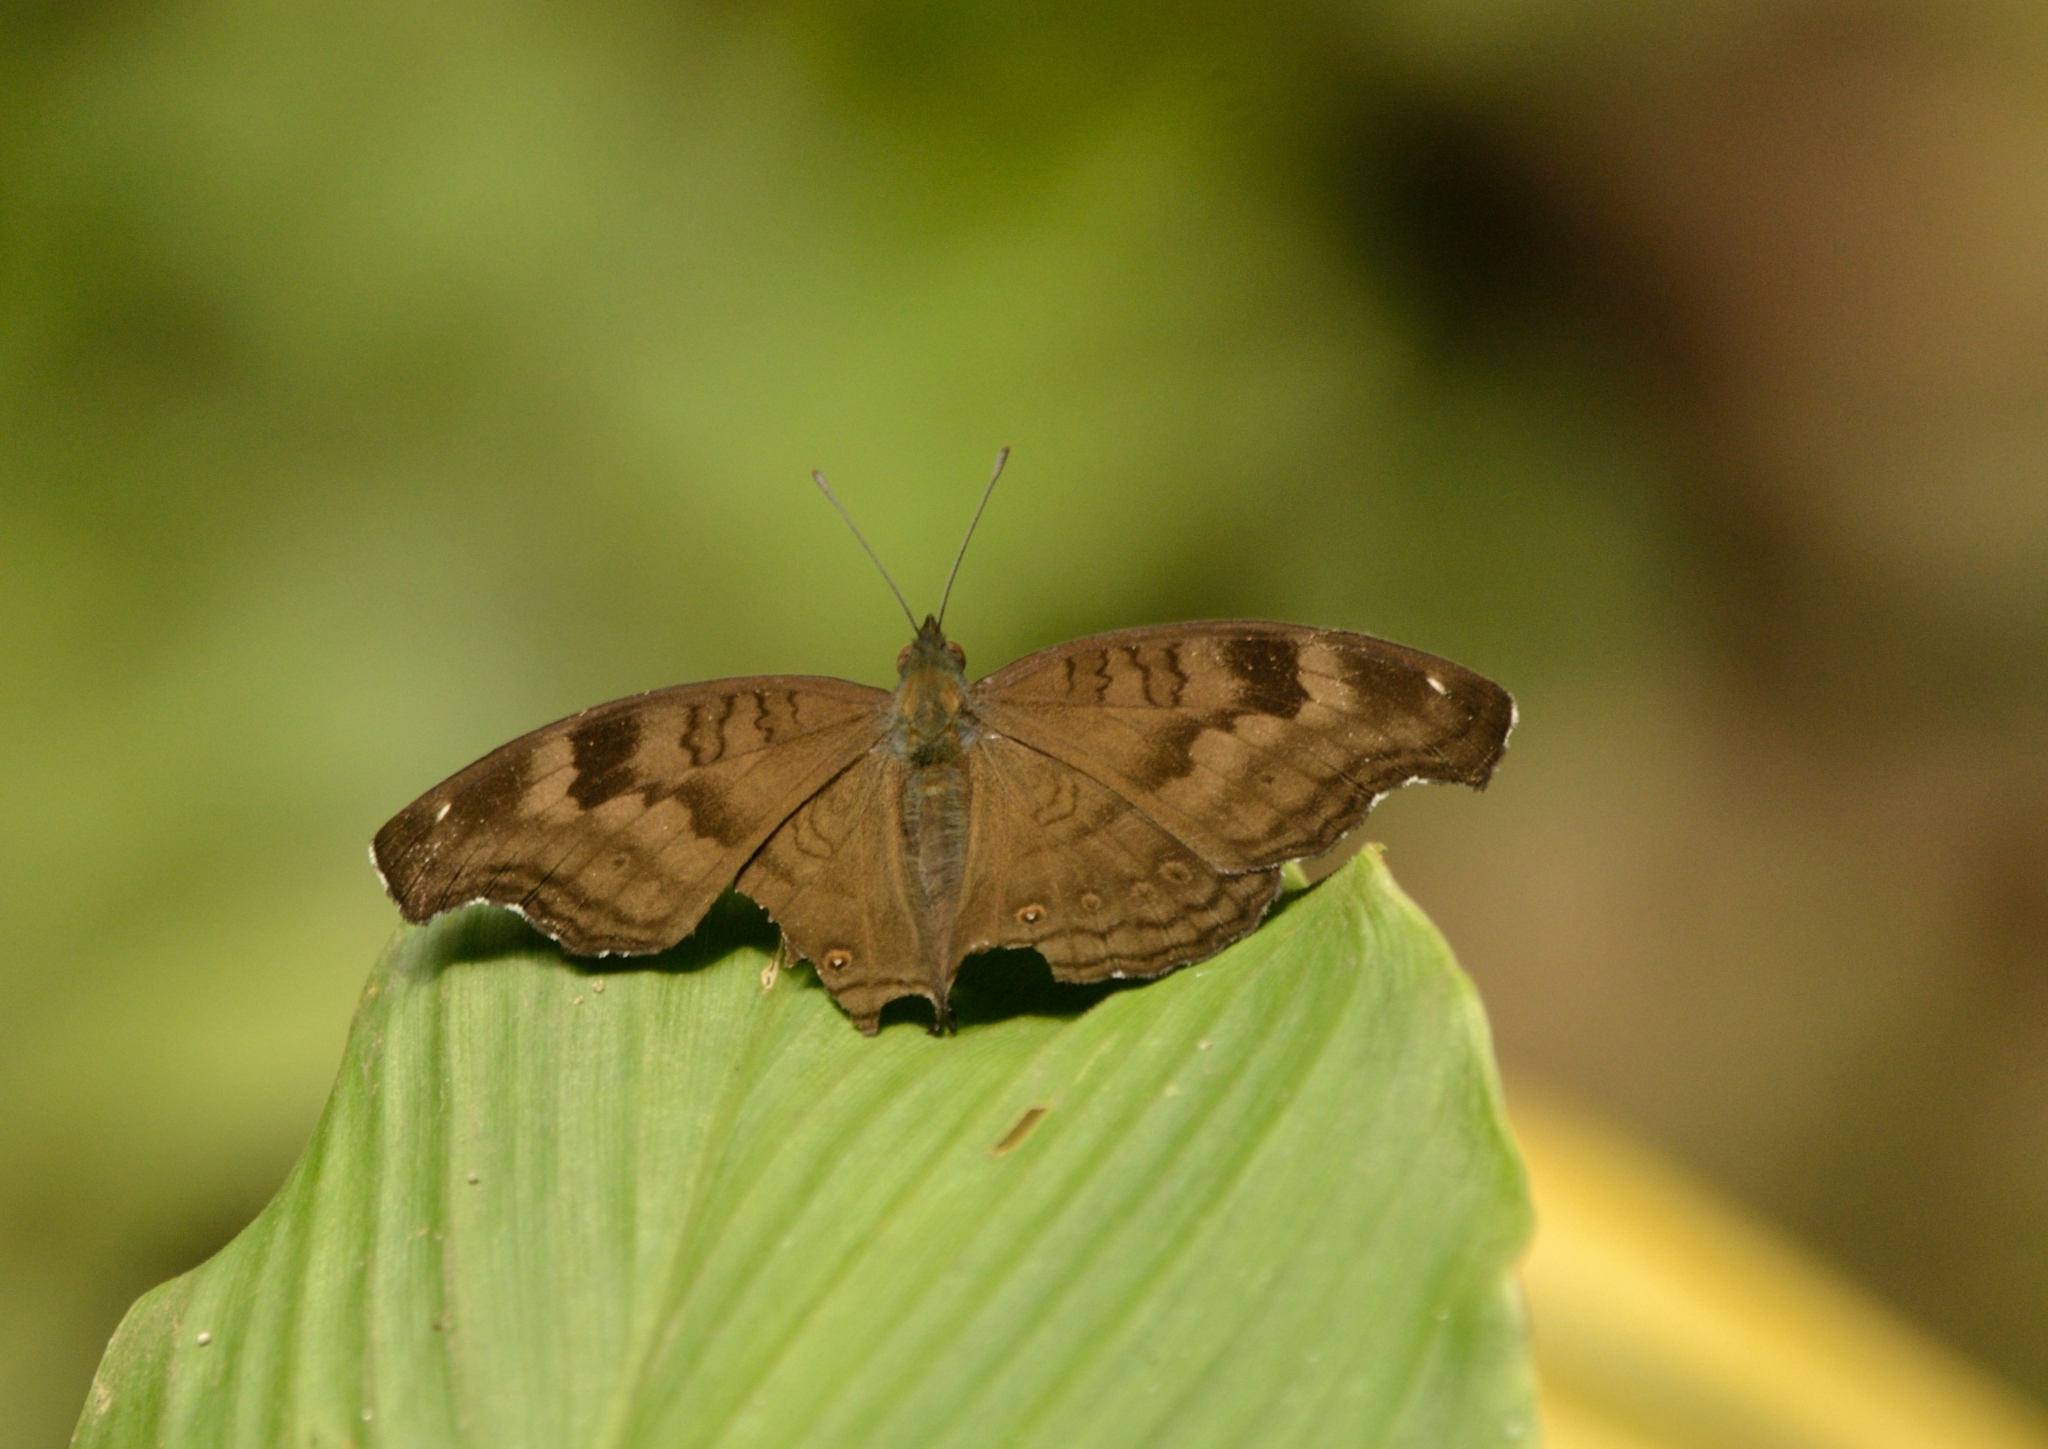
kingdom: Animalia
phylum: Arthropoda
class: Insecta
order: Lepidoptera
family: Nymphalidae
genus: Junonia
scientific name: Junonia iphita
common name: Chocolate pansy
